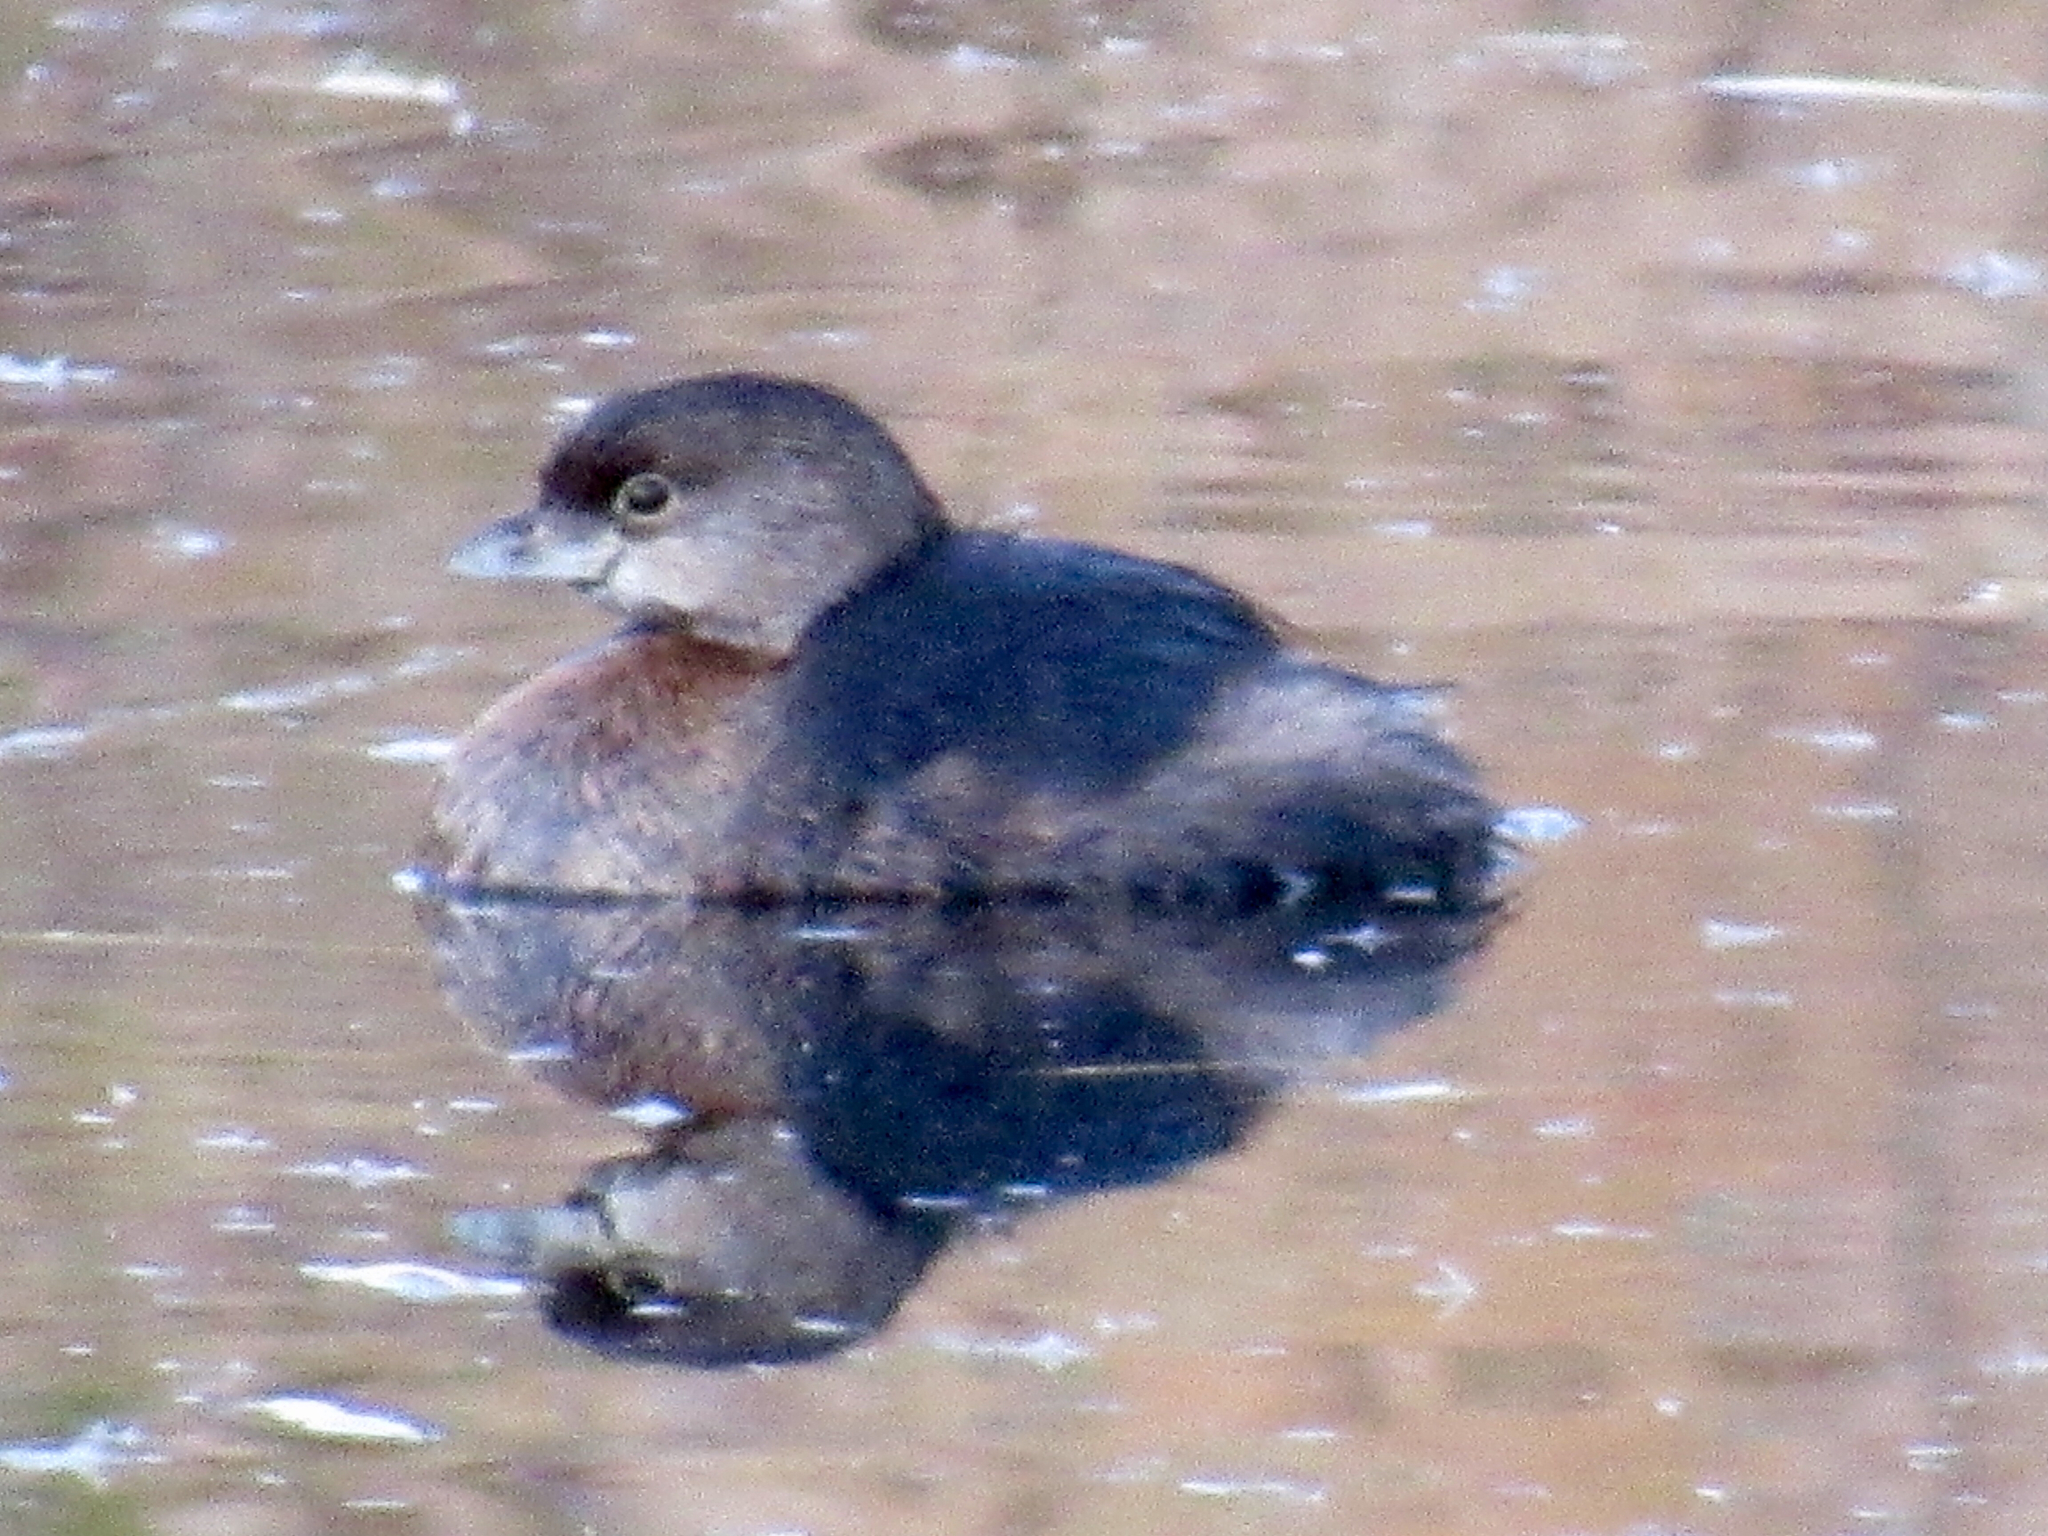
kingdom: Animalia
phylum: Chordata
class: Aves
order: Podicipediformes
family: Podicipedidae
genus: Podilymbus
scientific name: Podilymbus podiceps
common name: Pied-billed grebe
